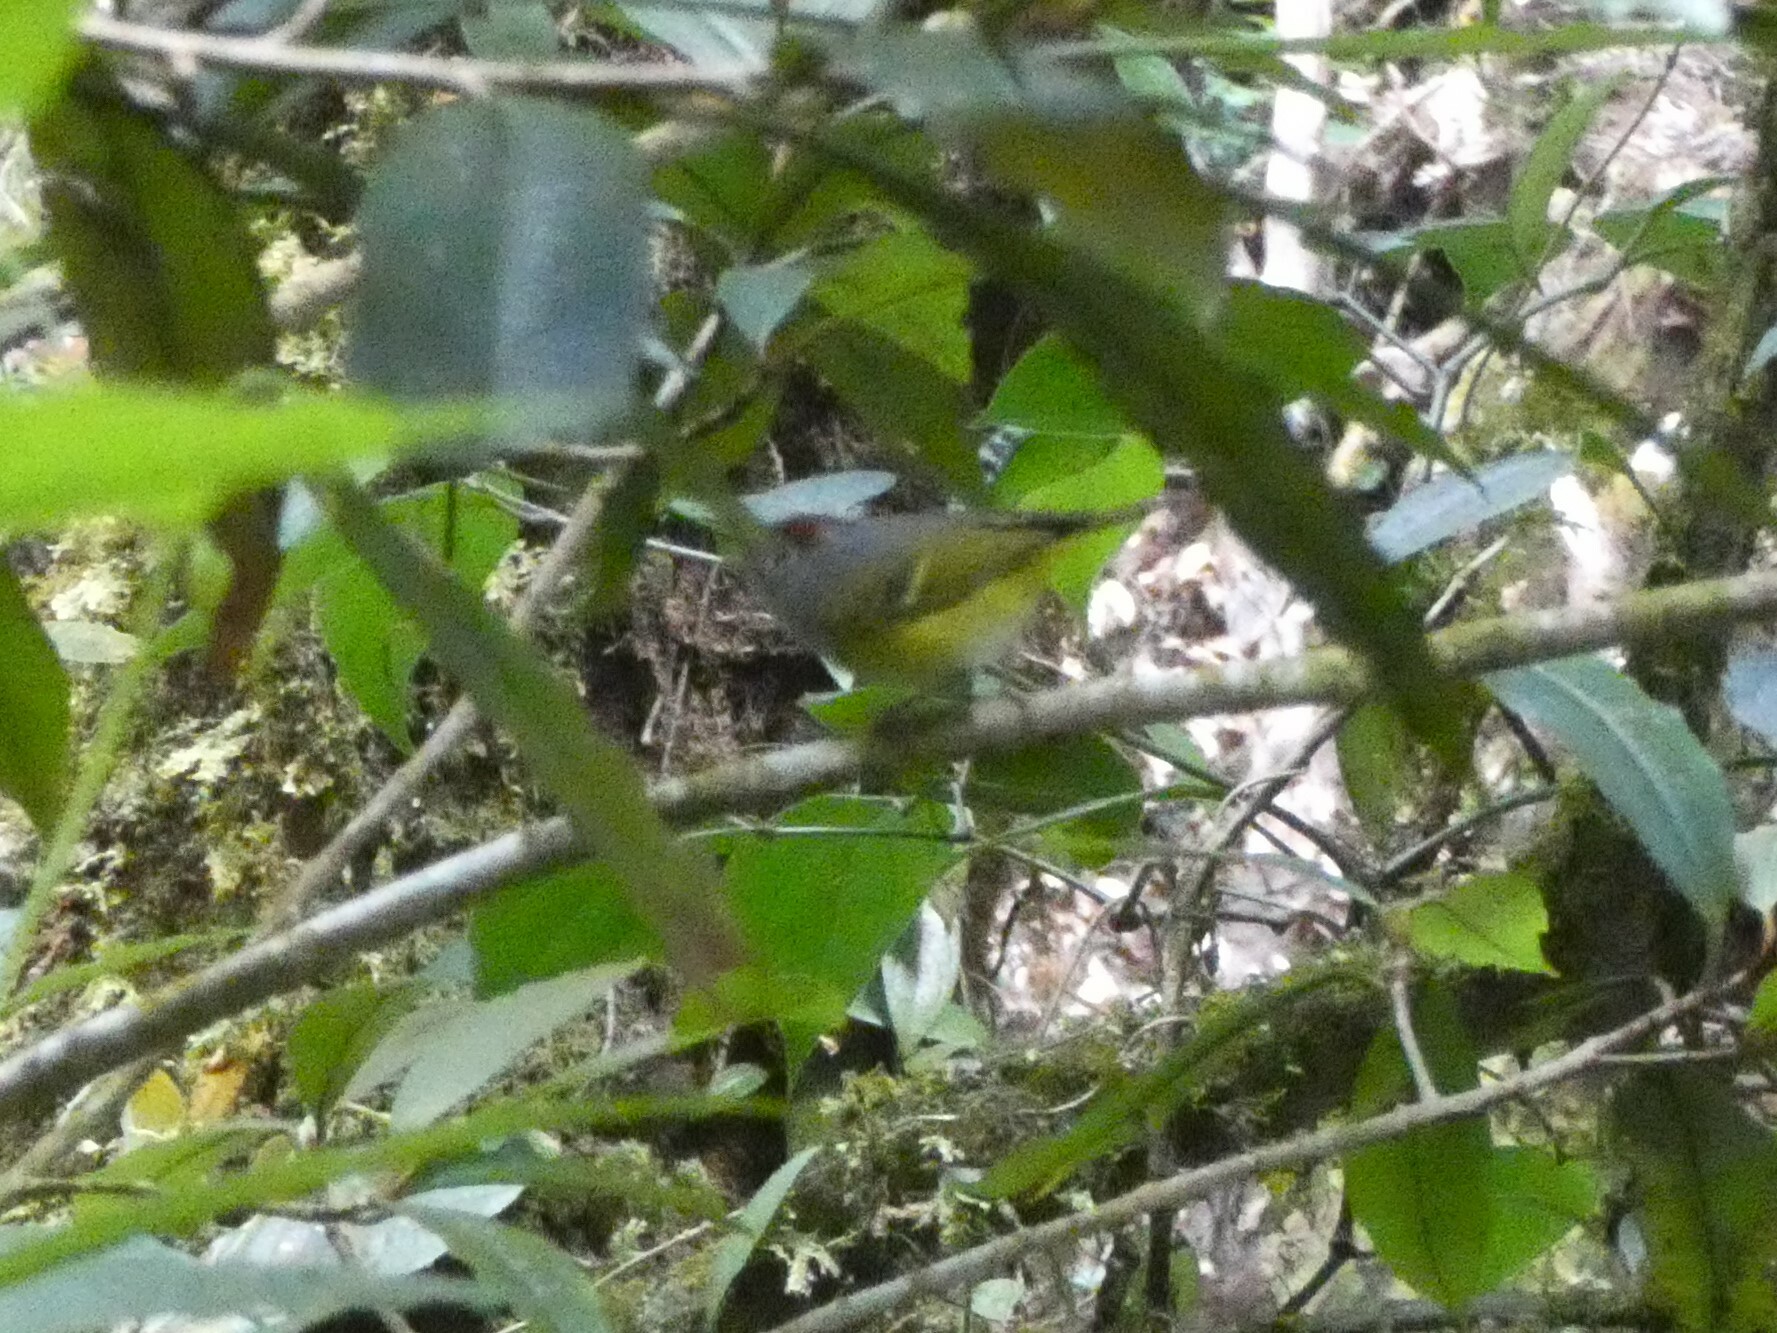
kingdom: Animalia
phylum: Chordata
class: Aves
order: Passeriformes
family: Phylloscopidae
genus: Seicercus
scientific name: Seicercus castaniceps
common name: Chestnut-crowned warbler
